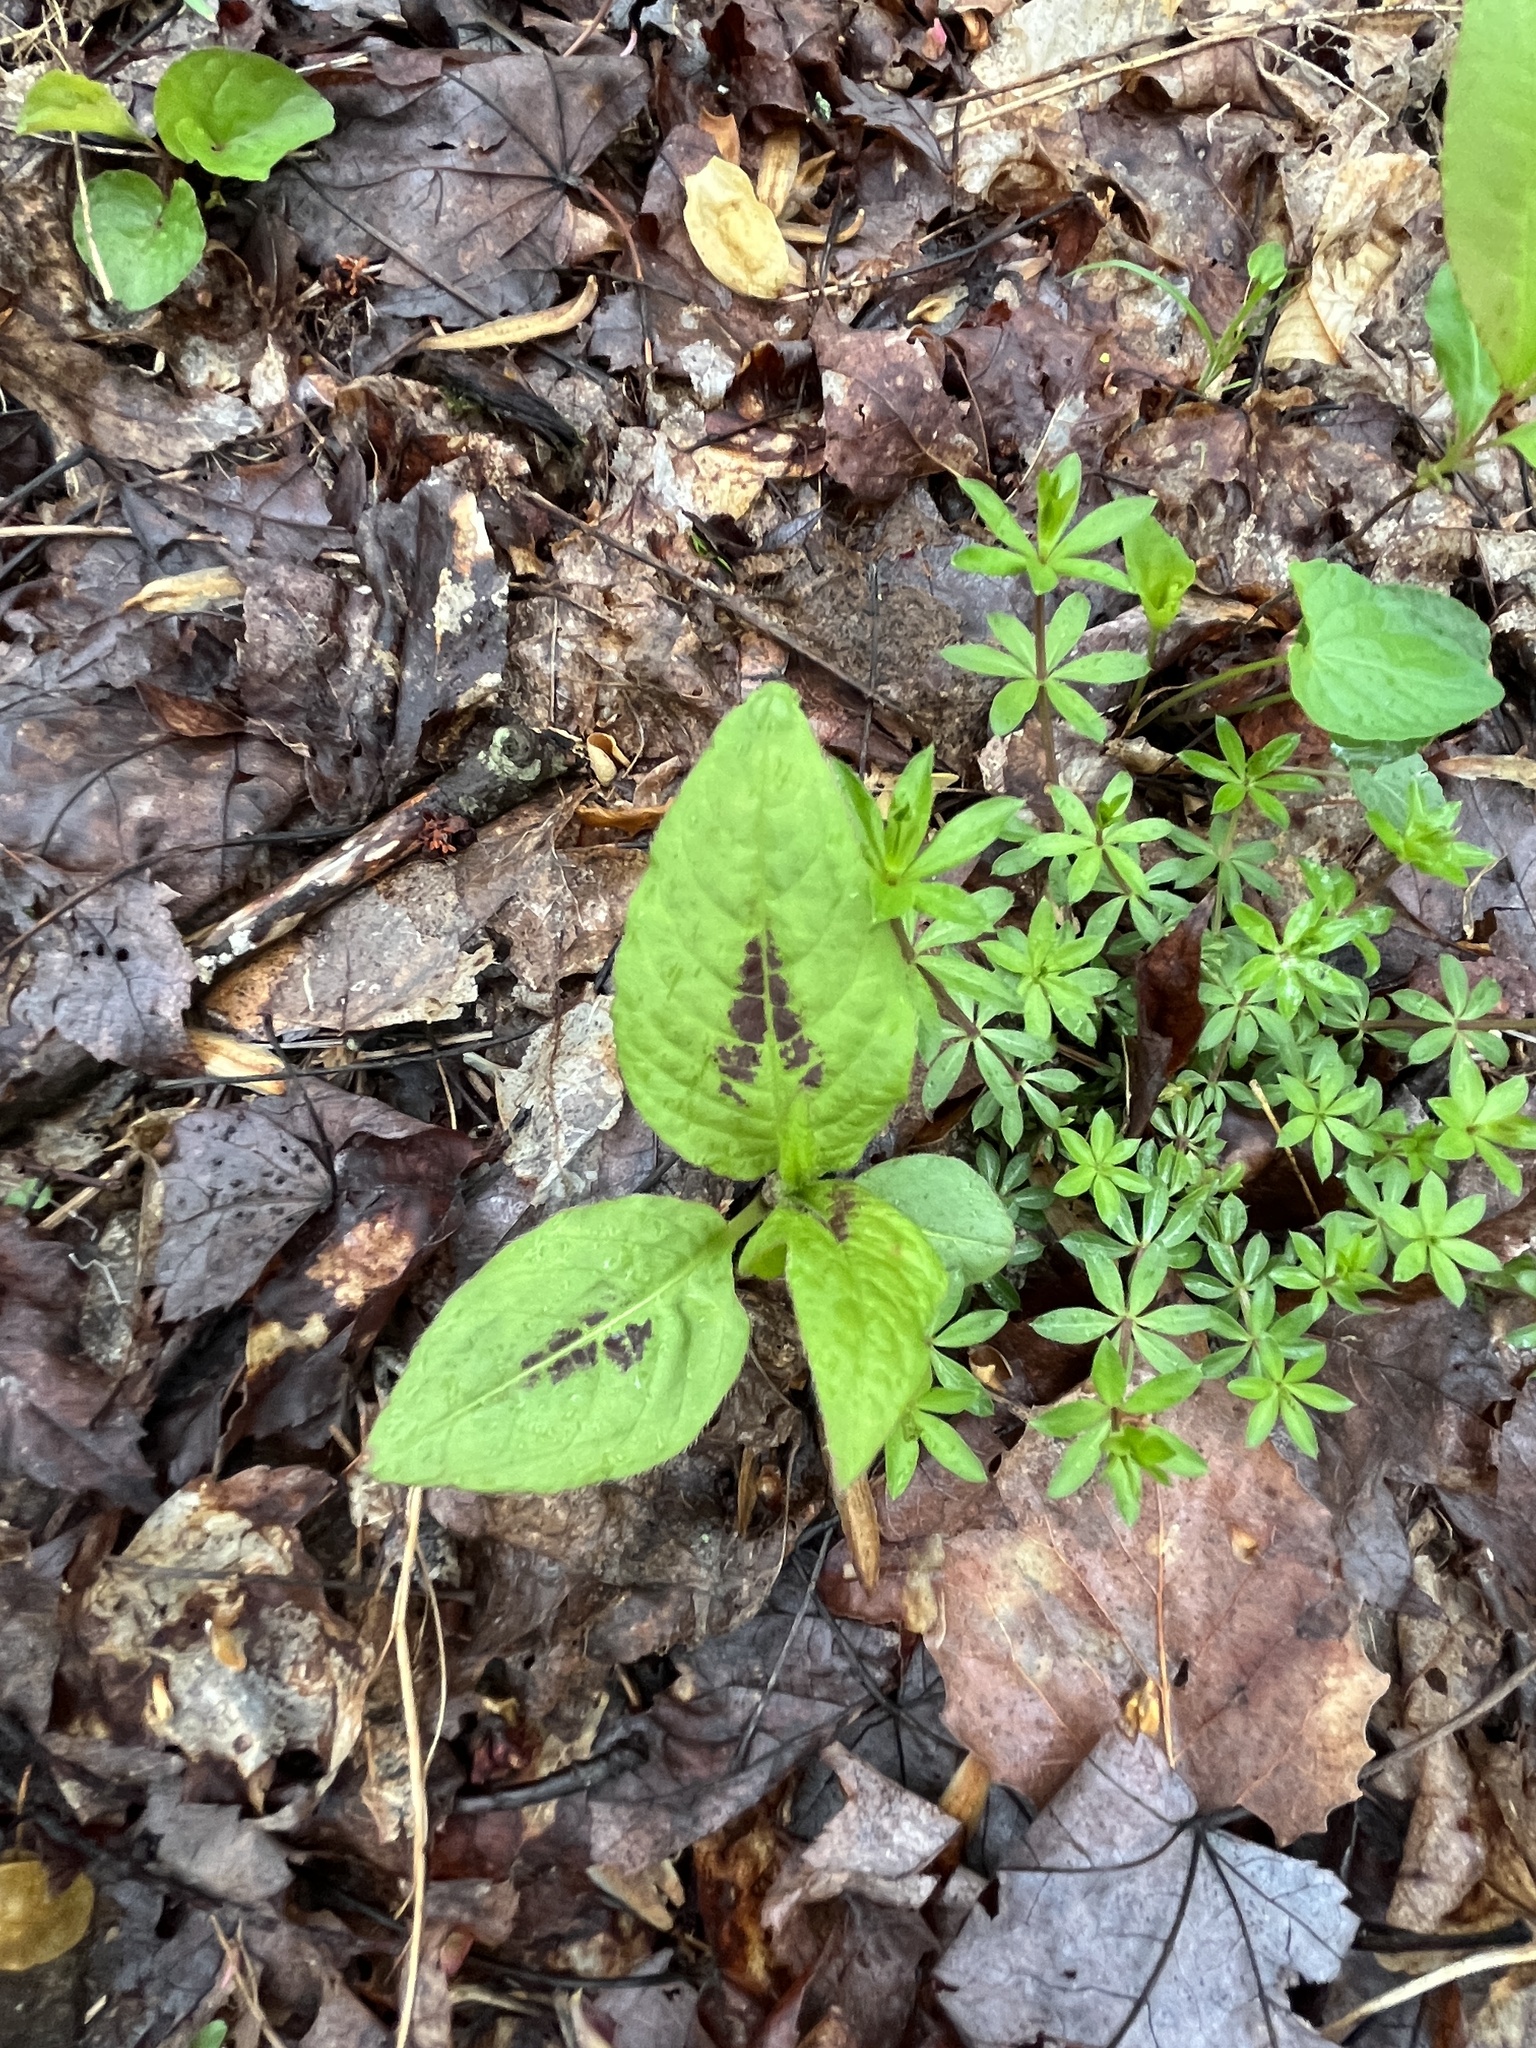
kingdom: Plantae
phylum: Tracheophyta
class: Magnoliopsida
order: Caryophyllales
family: Polygonaceae
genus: Persicaria
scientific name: Persicaria virginiana
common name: Jumpseed
